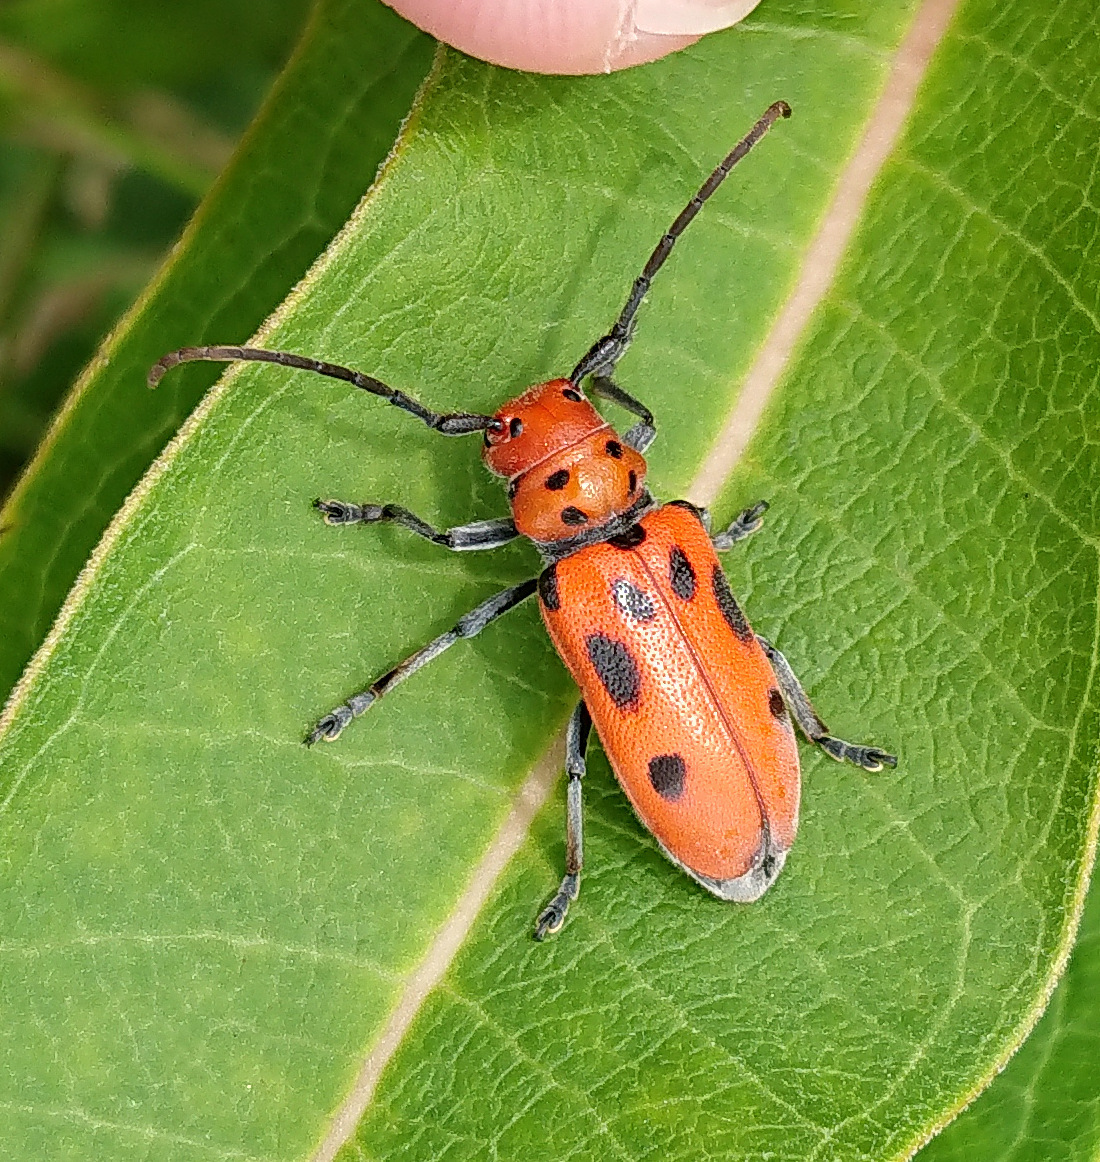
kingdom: Animalia
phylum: Arthropoda
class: Insecta
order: Coleoptera
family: Cerambycidae
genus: Tetraopes
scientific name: Tetraopes tetrophthalmus
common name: Red milkweed beetle
